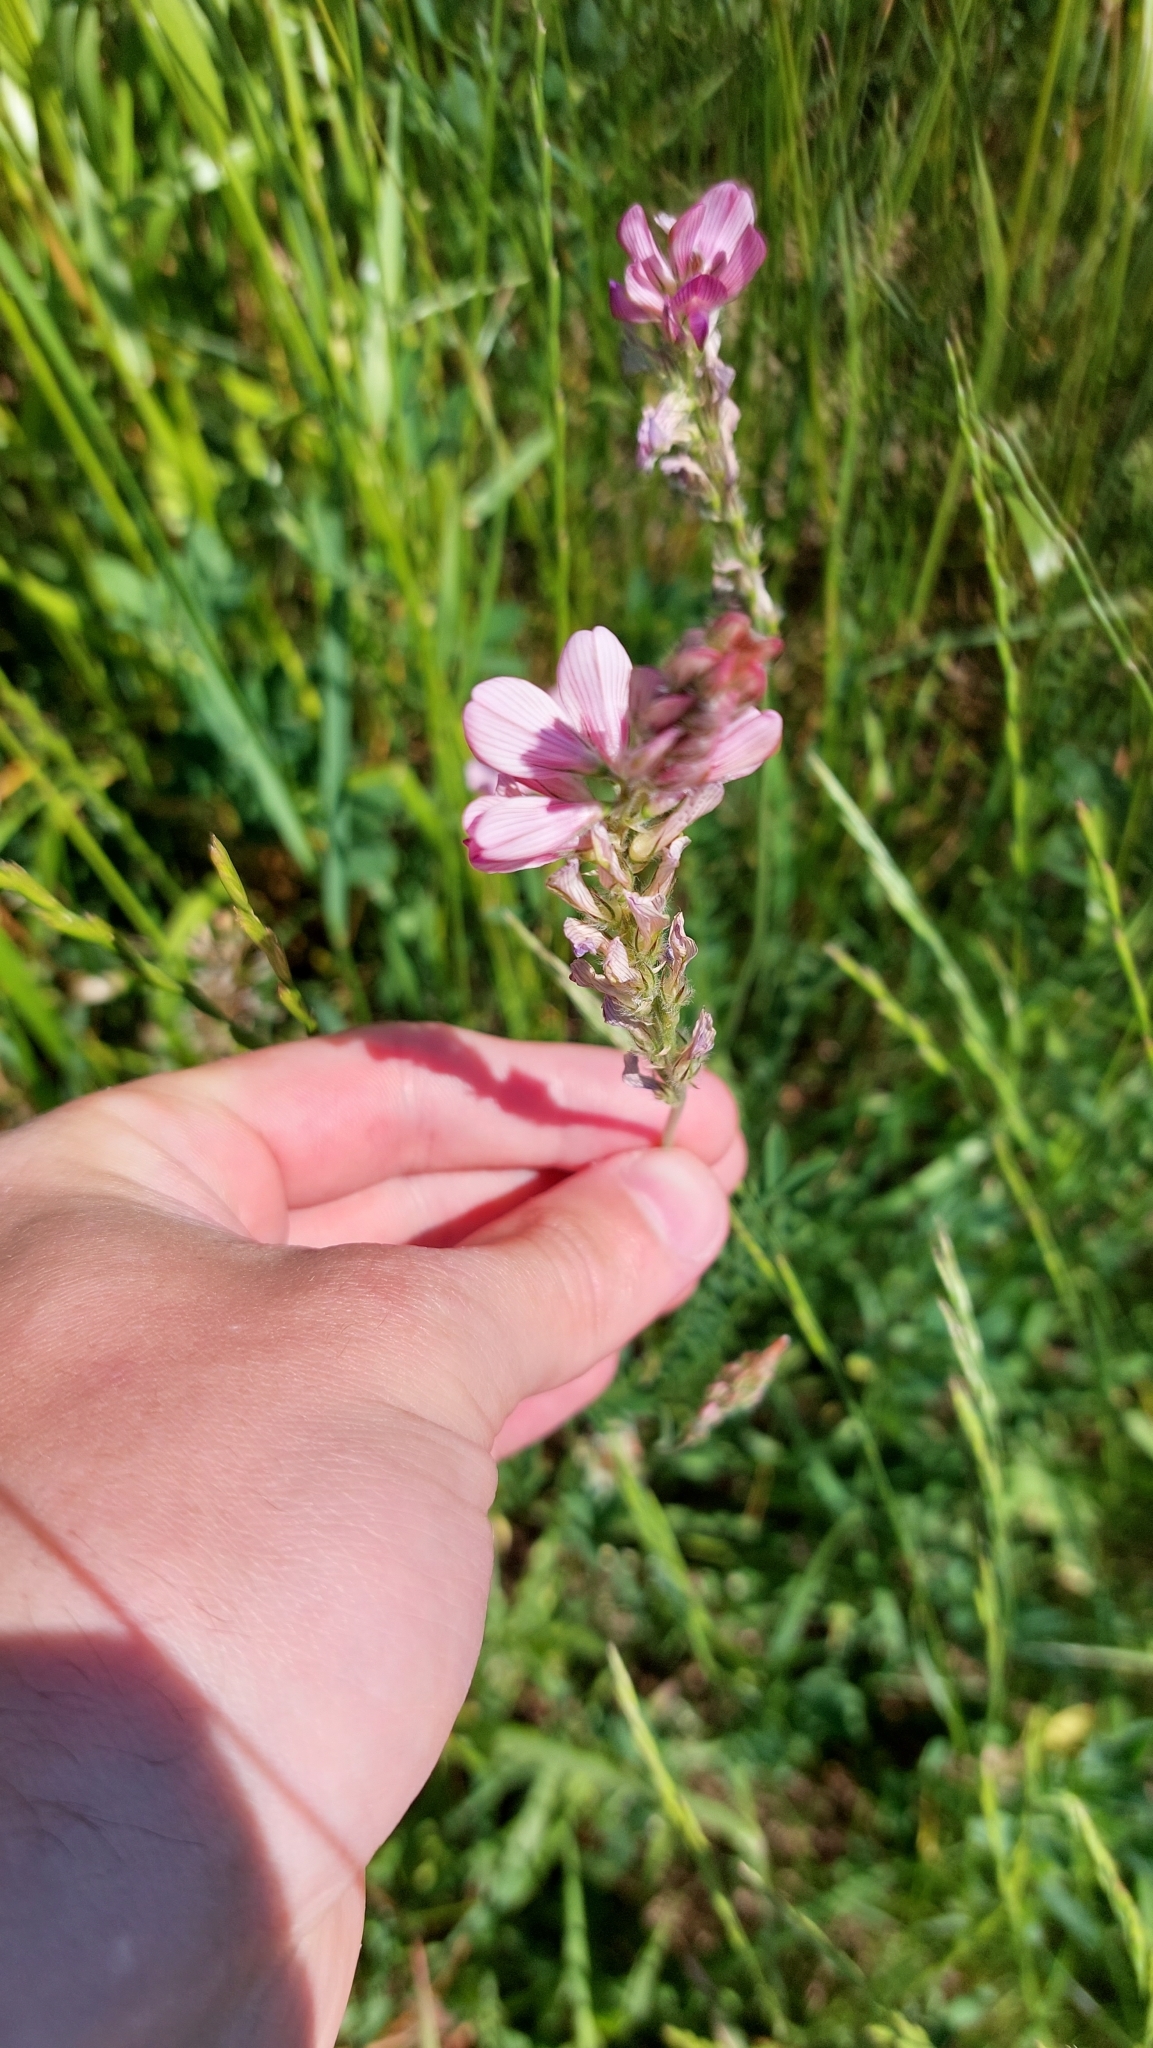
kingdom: Plantae
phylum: Tracheophyta
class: Magnoliopsida
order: Fabales
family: Fabaceae
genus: Onobrychis
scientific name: Onobrychis viciifolia
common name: Sainfoin
